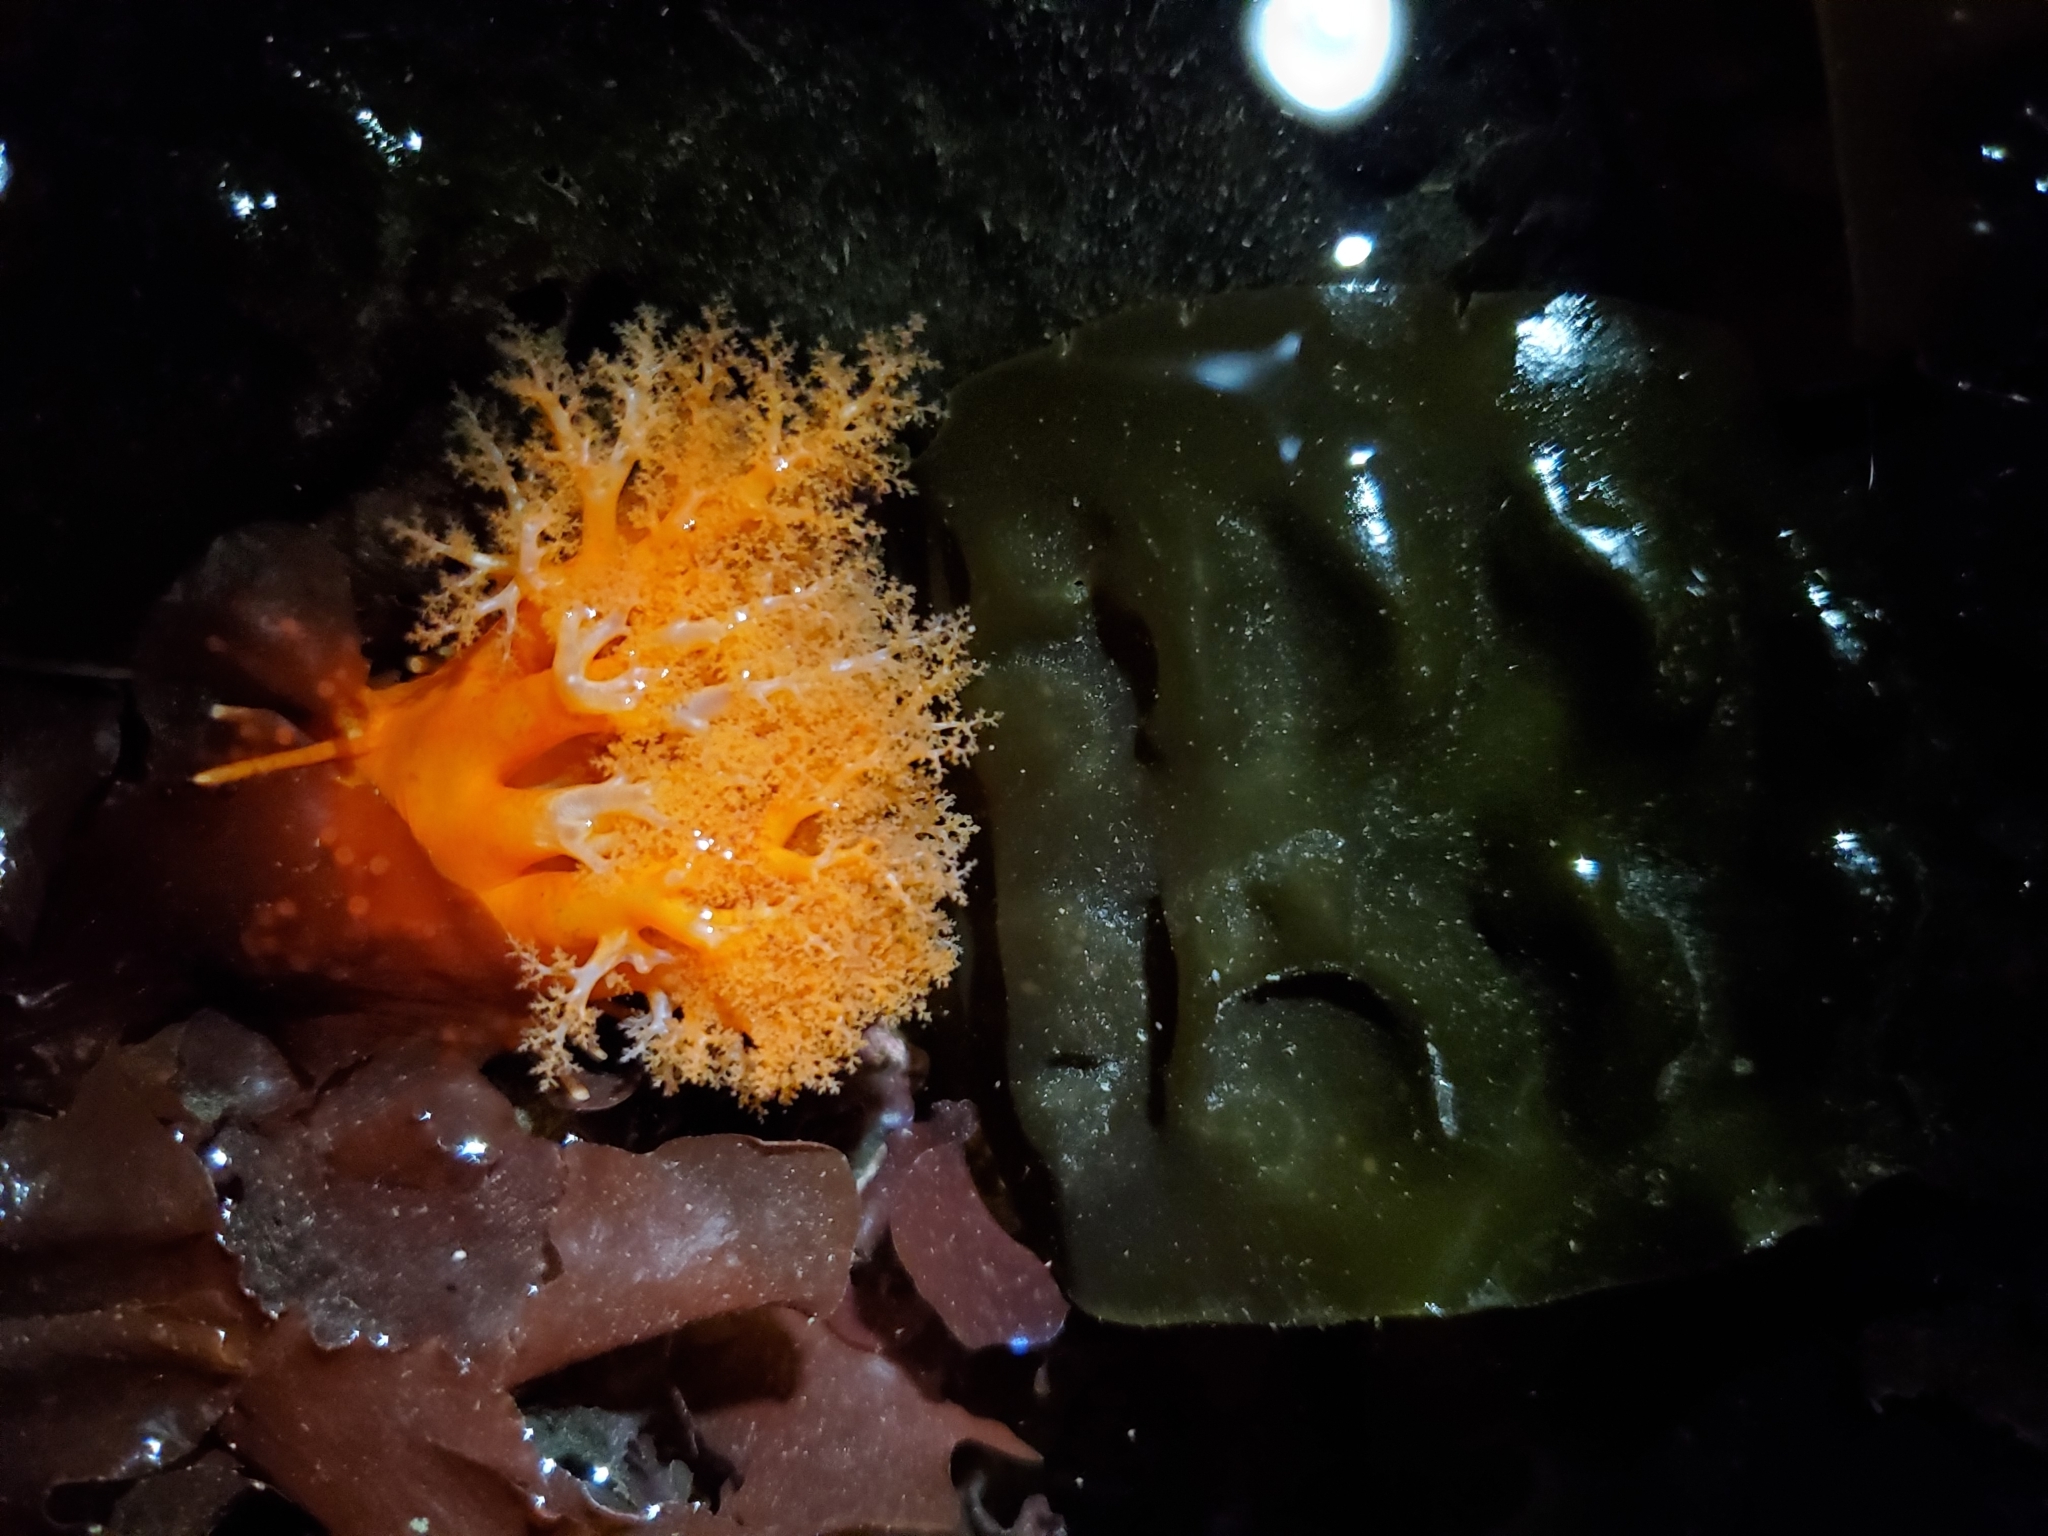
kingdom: Animalia
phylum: Echinodermata
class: Holothuroidea
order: Dendrochirotida
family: Cucumariidae
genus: Cucumaria
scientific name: Cucumaria miniata
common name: Orange sea cucumber
